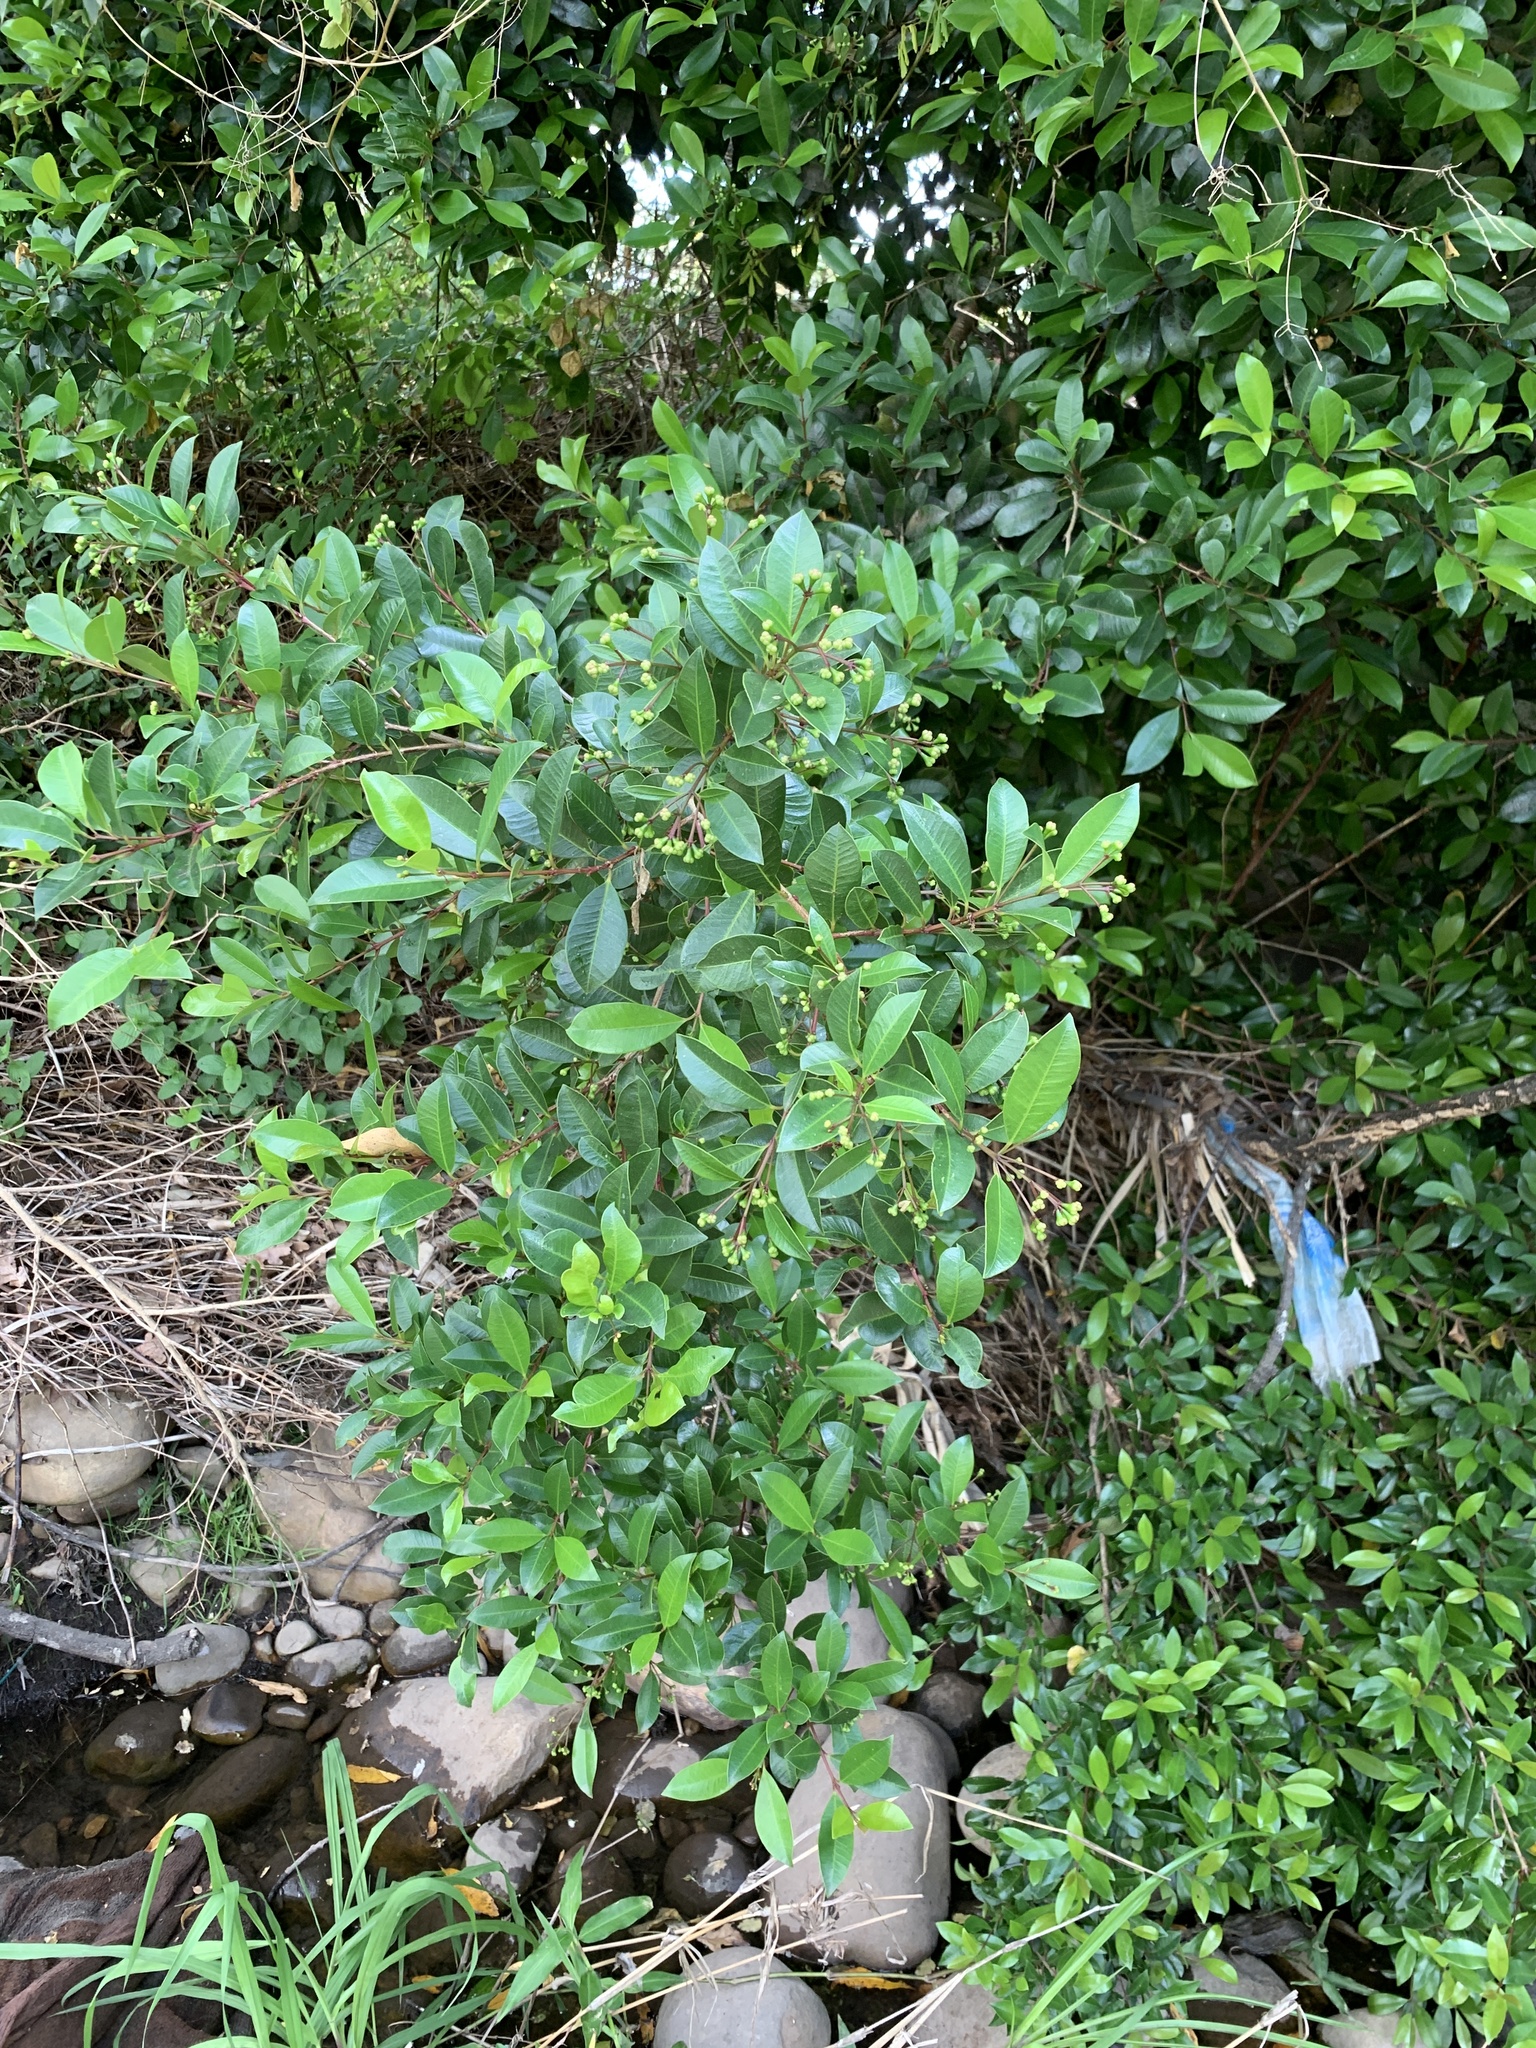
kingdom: Plantae
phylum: Tracheophyta
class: Magnoliopsida
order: Myrtales
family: Myrtaceae
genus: Syzygium
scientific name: Syzygium australe
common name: Australian brush-cherry
